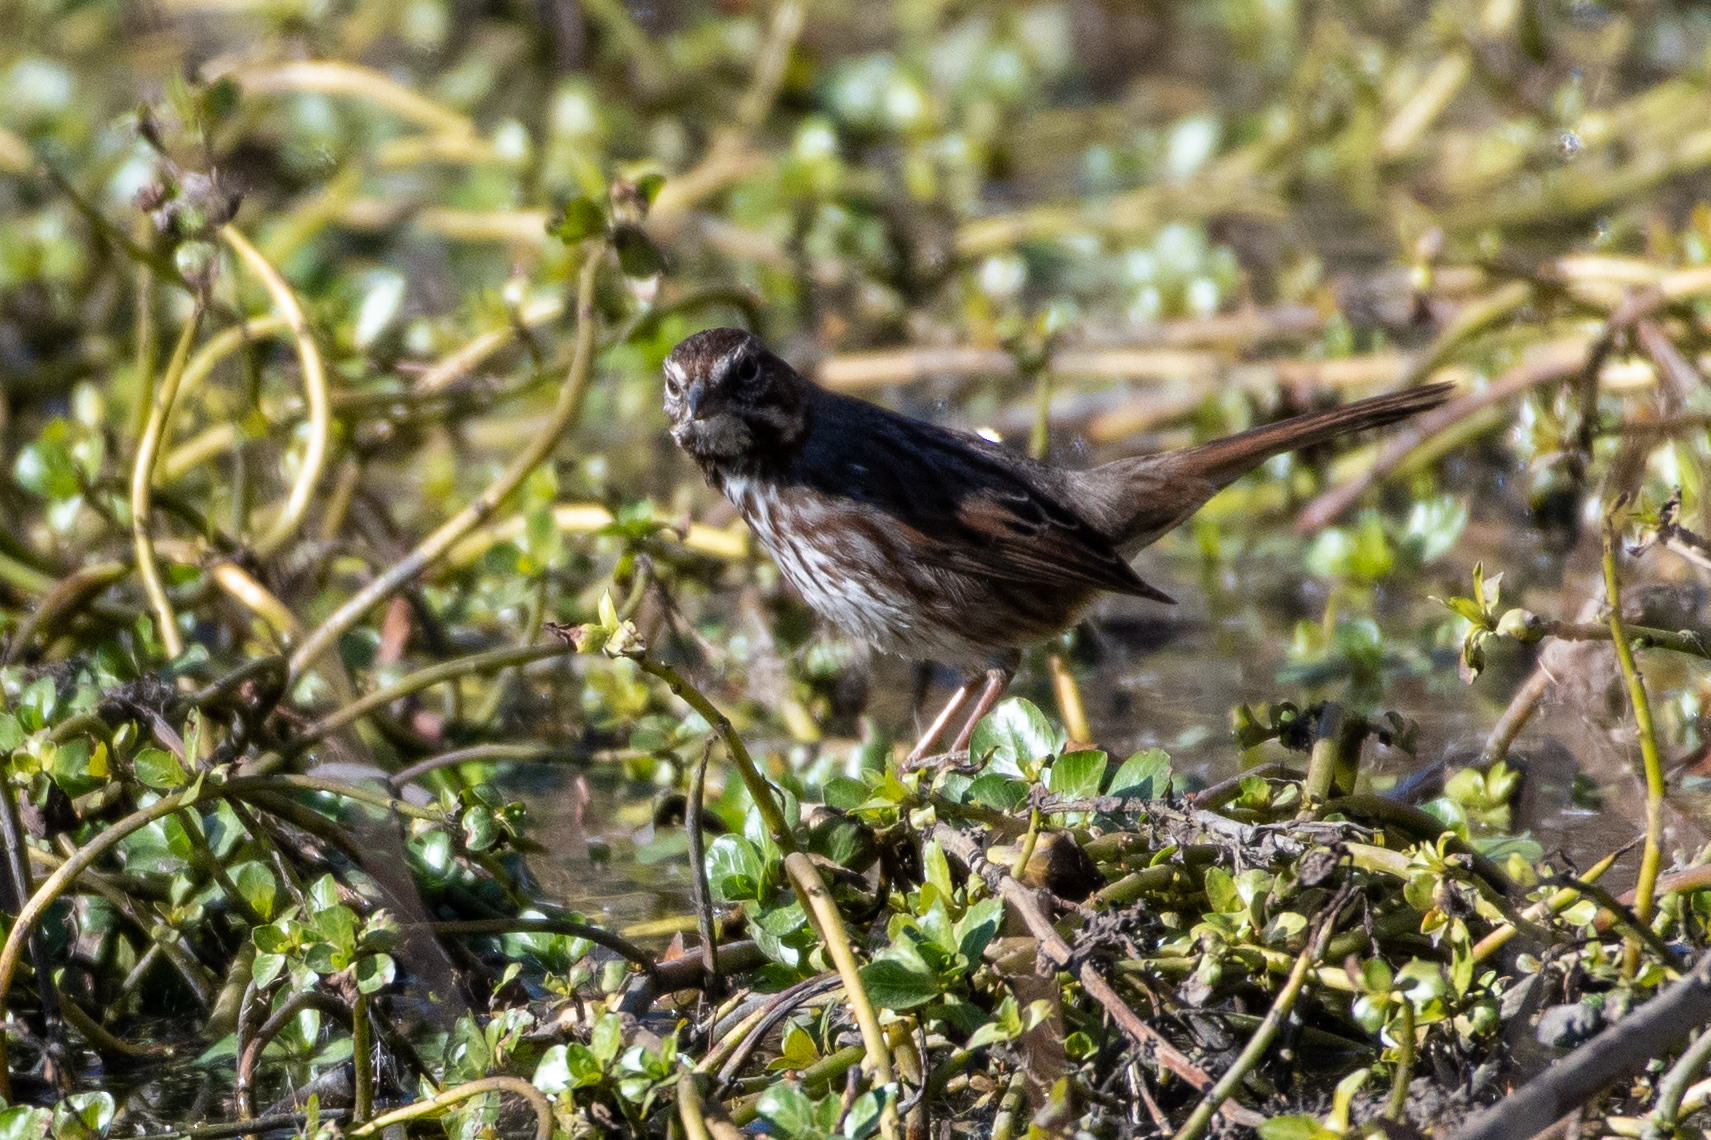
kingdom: Animalia
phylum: Chordata
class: Aves
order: Passeriformes
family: Passerellidae
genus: Melospiza
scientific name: Melospiza melodia
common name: Song sparrow
